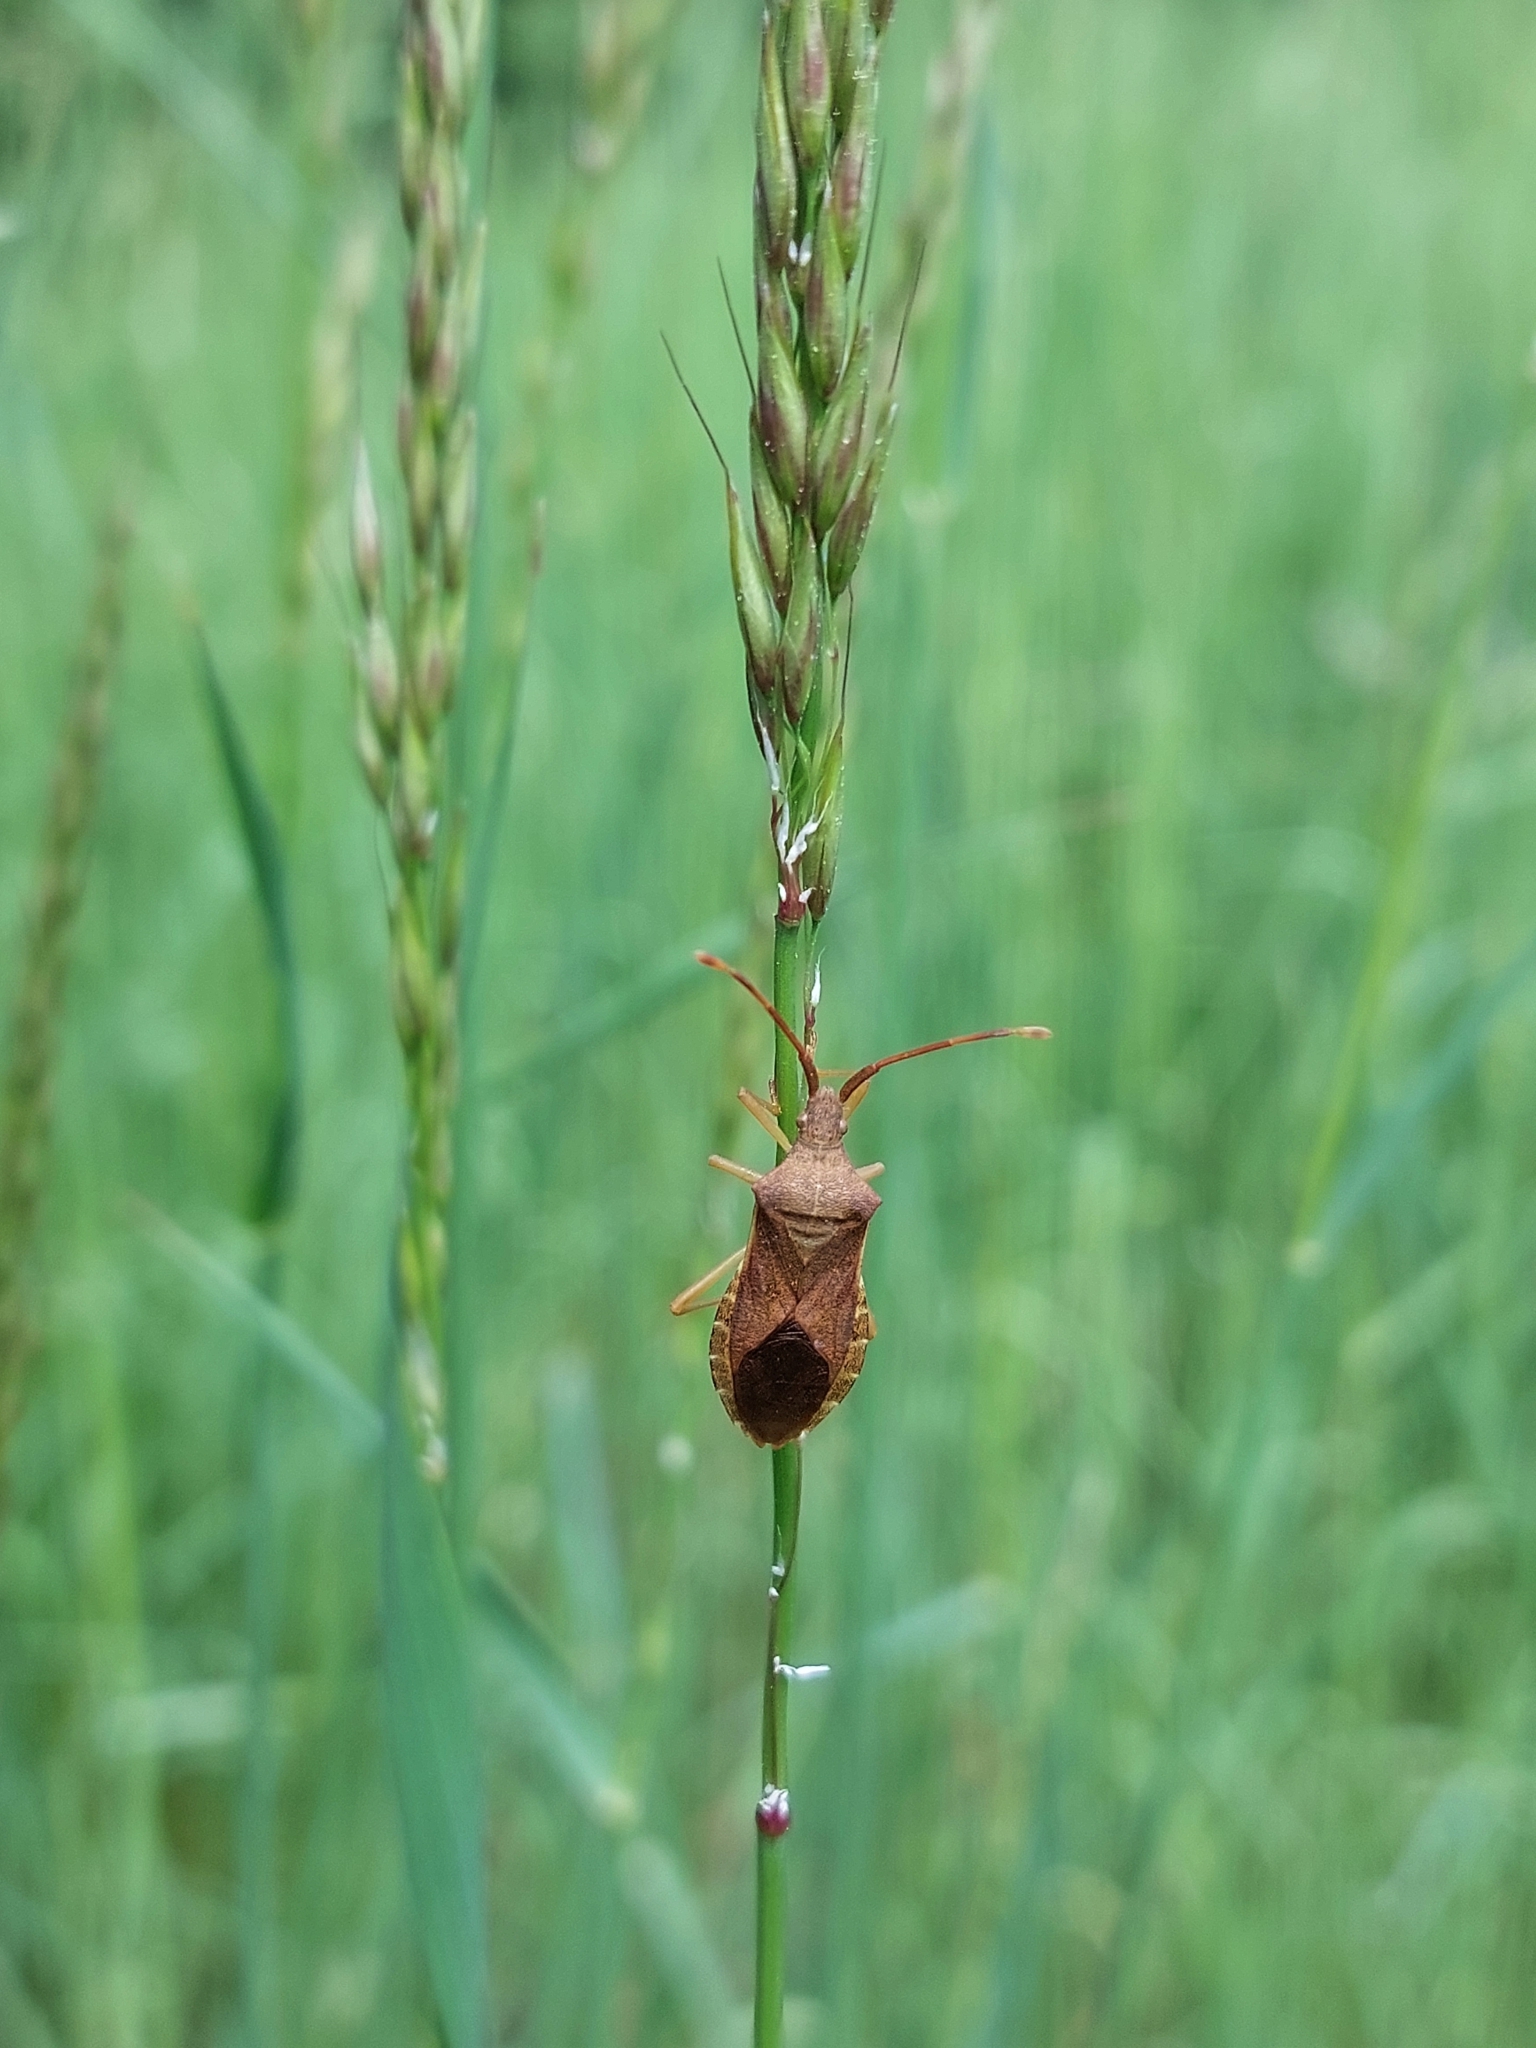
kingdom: Animalia
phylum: Arthropoda
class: Insecta
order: Hemiptera
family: Coreidae
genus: Gonocerus
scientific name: Gonocerus acuteangulatus
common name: Box bug
